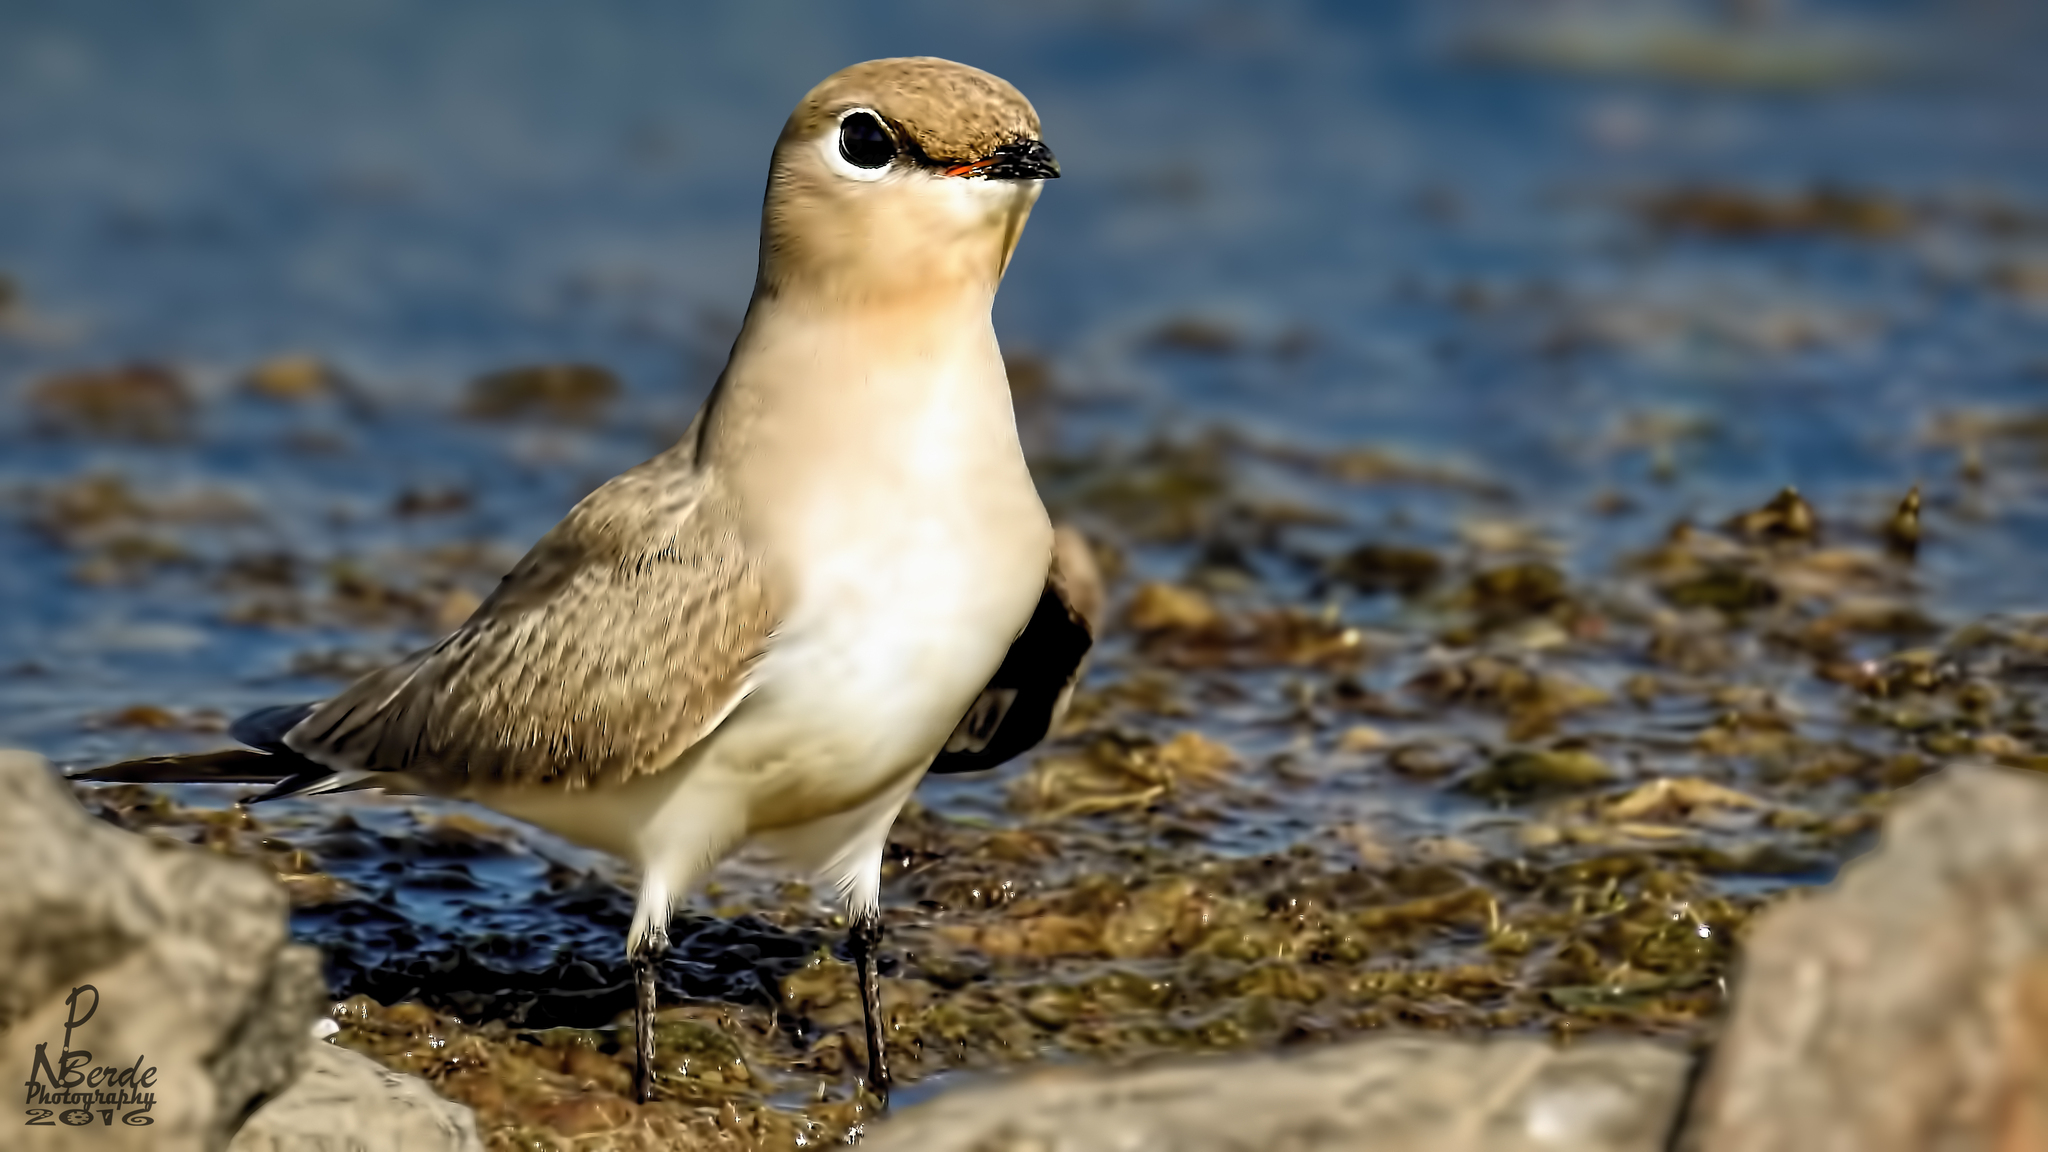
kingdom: Animalia
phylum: Chordata
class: Aves
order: Charadriiformes
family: Glareolidae
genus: Glareola
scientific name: Glareola lactea
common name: Small pratincole
